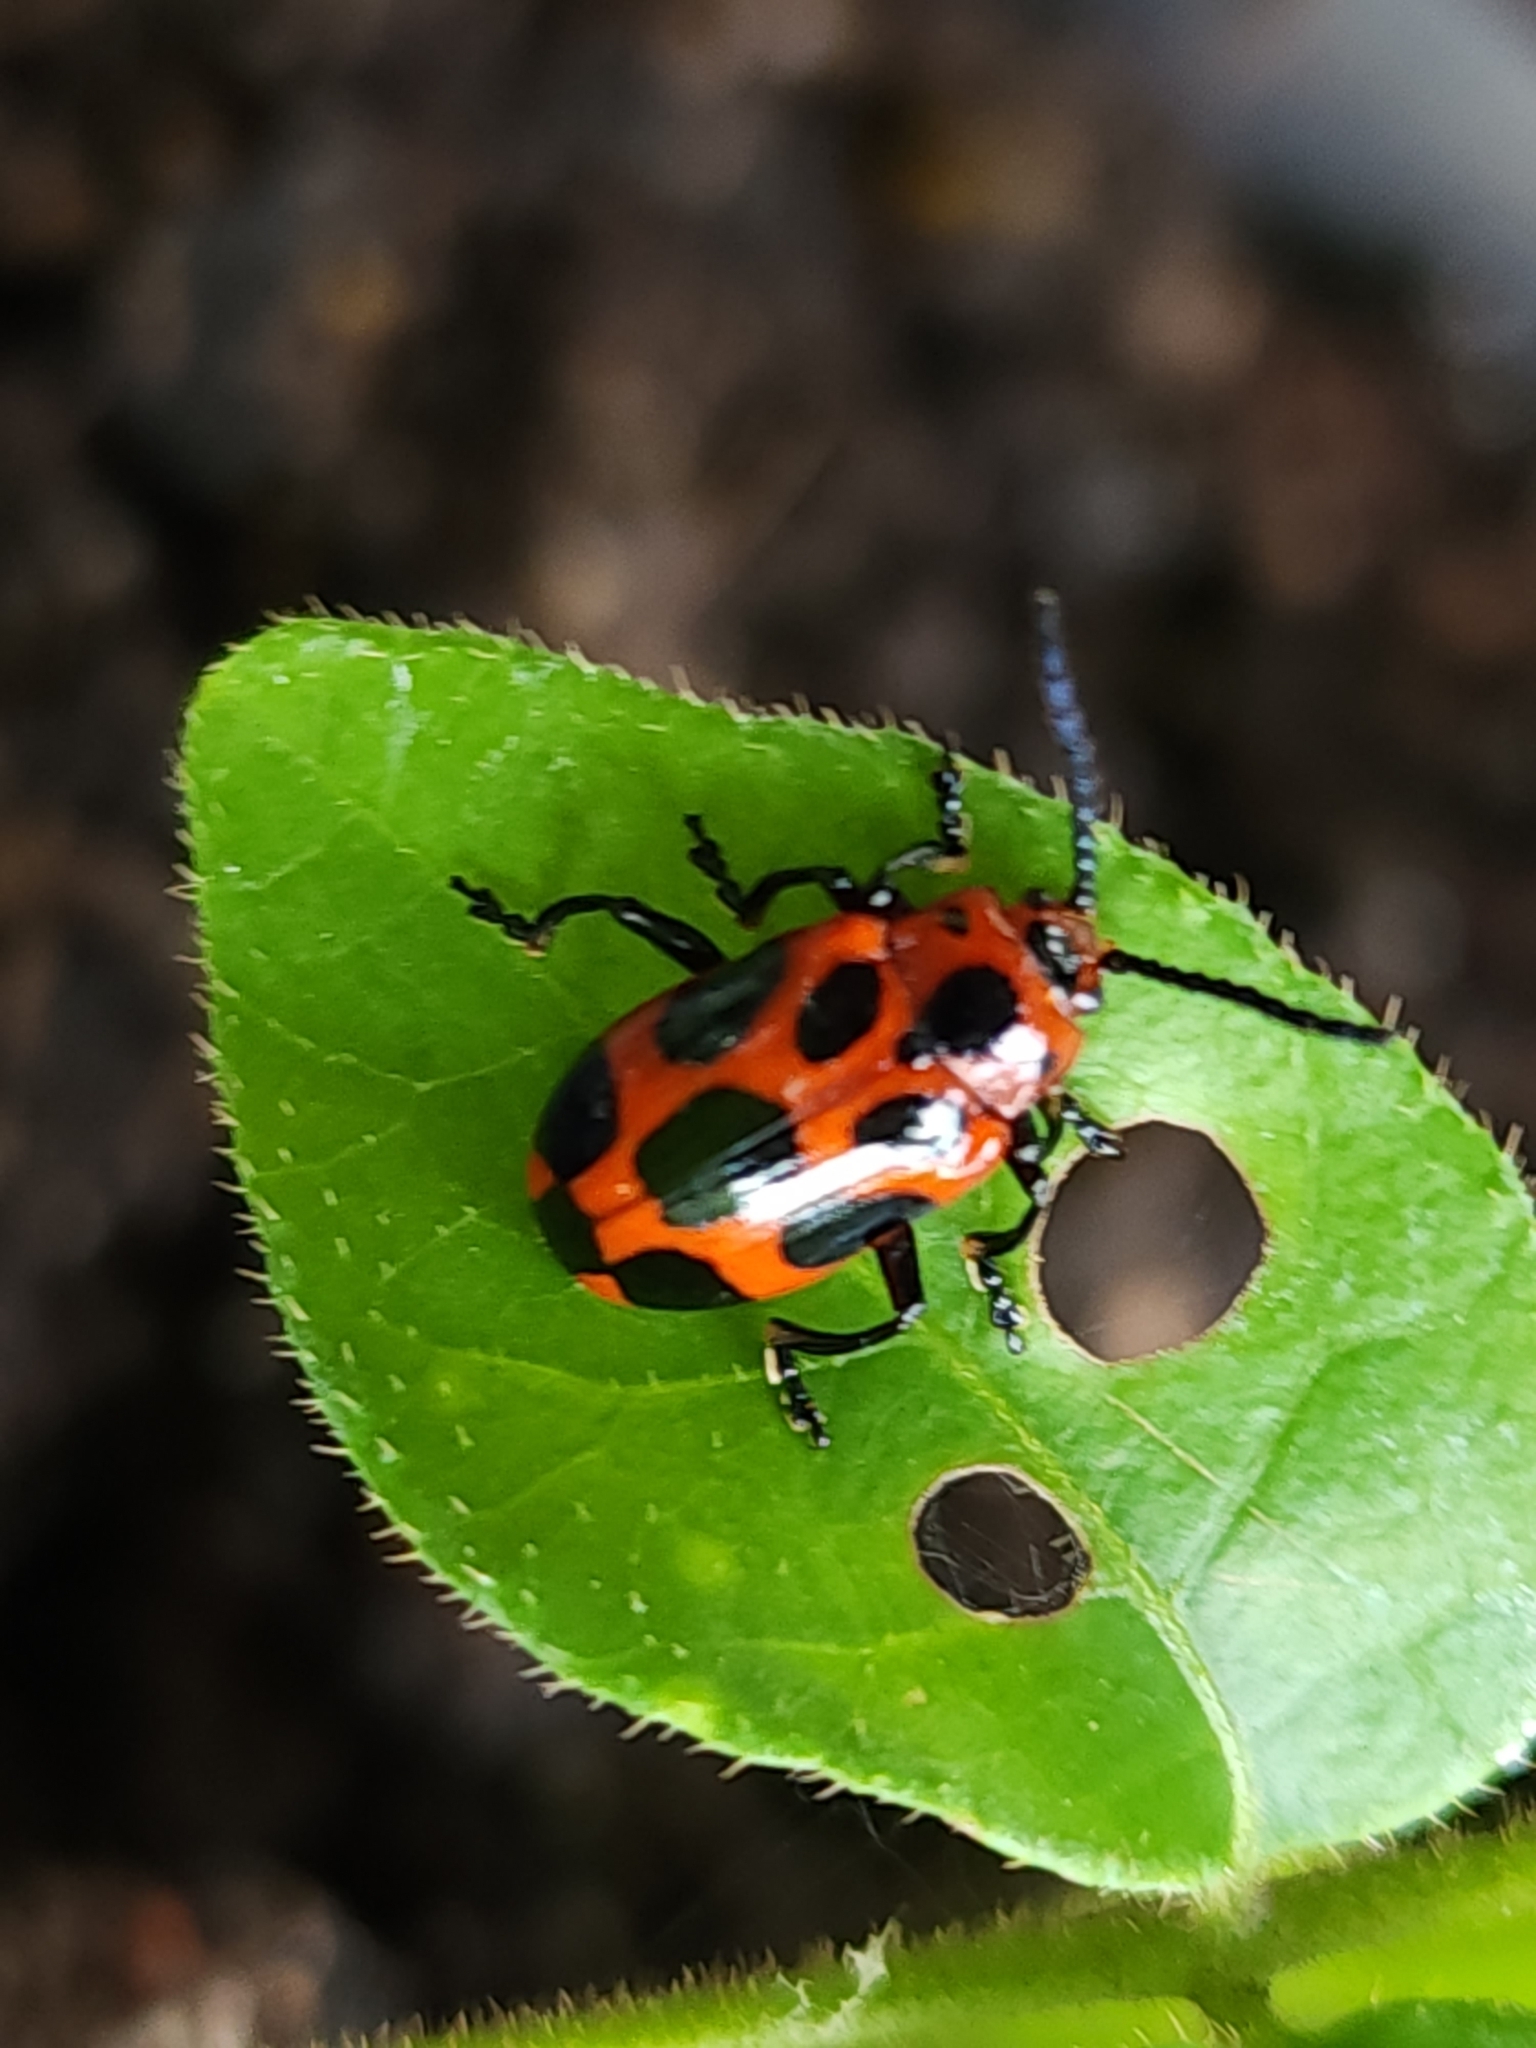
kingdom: Animalia
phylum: Arthropoda
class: Insecta
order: Coleoptera
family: Chrysomelidae
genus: Phyllocharis
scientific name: Phyllocharis
